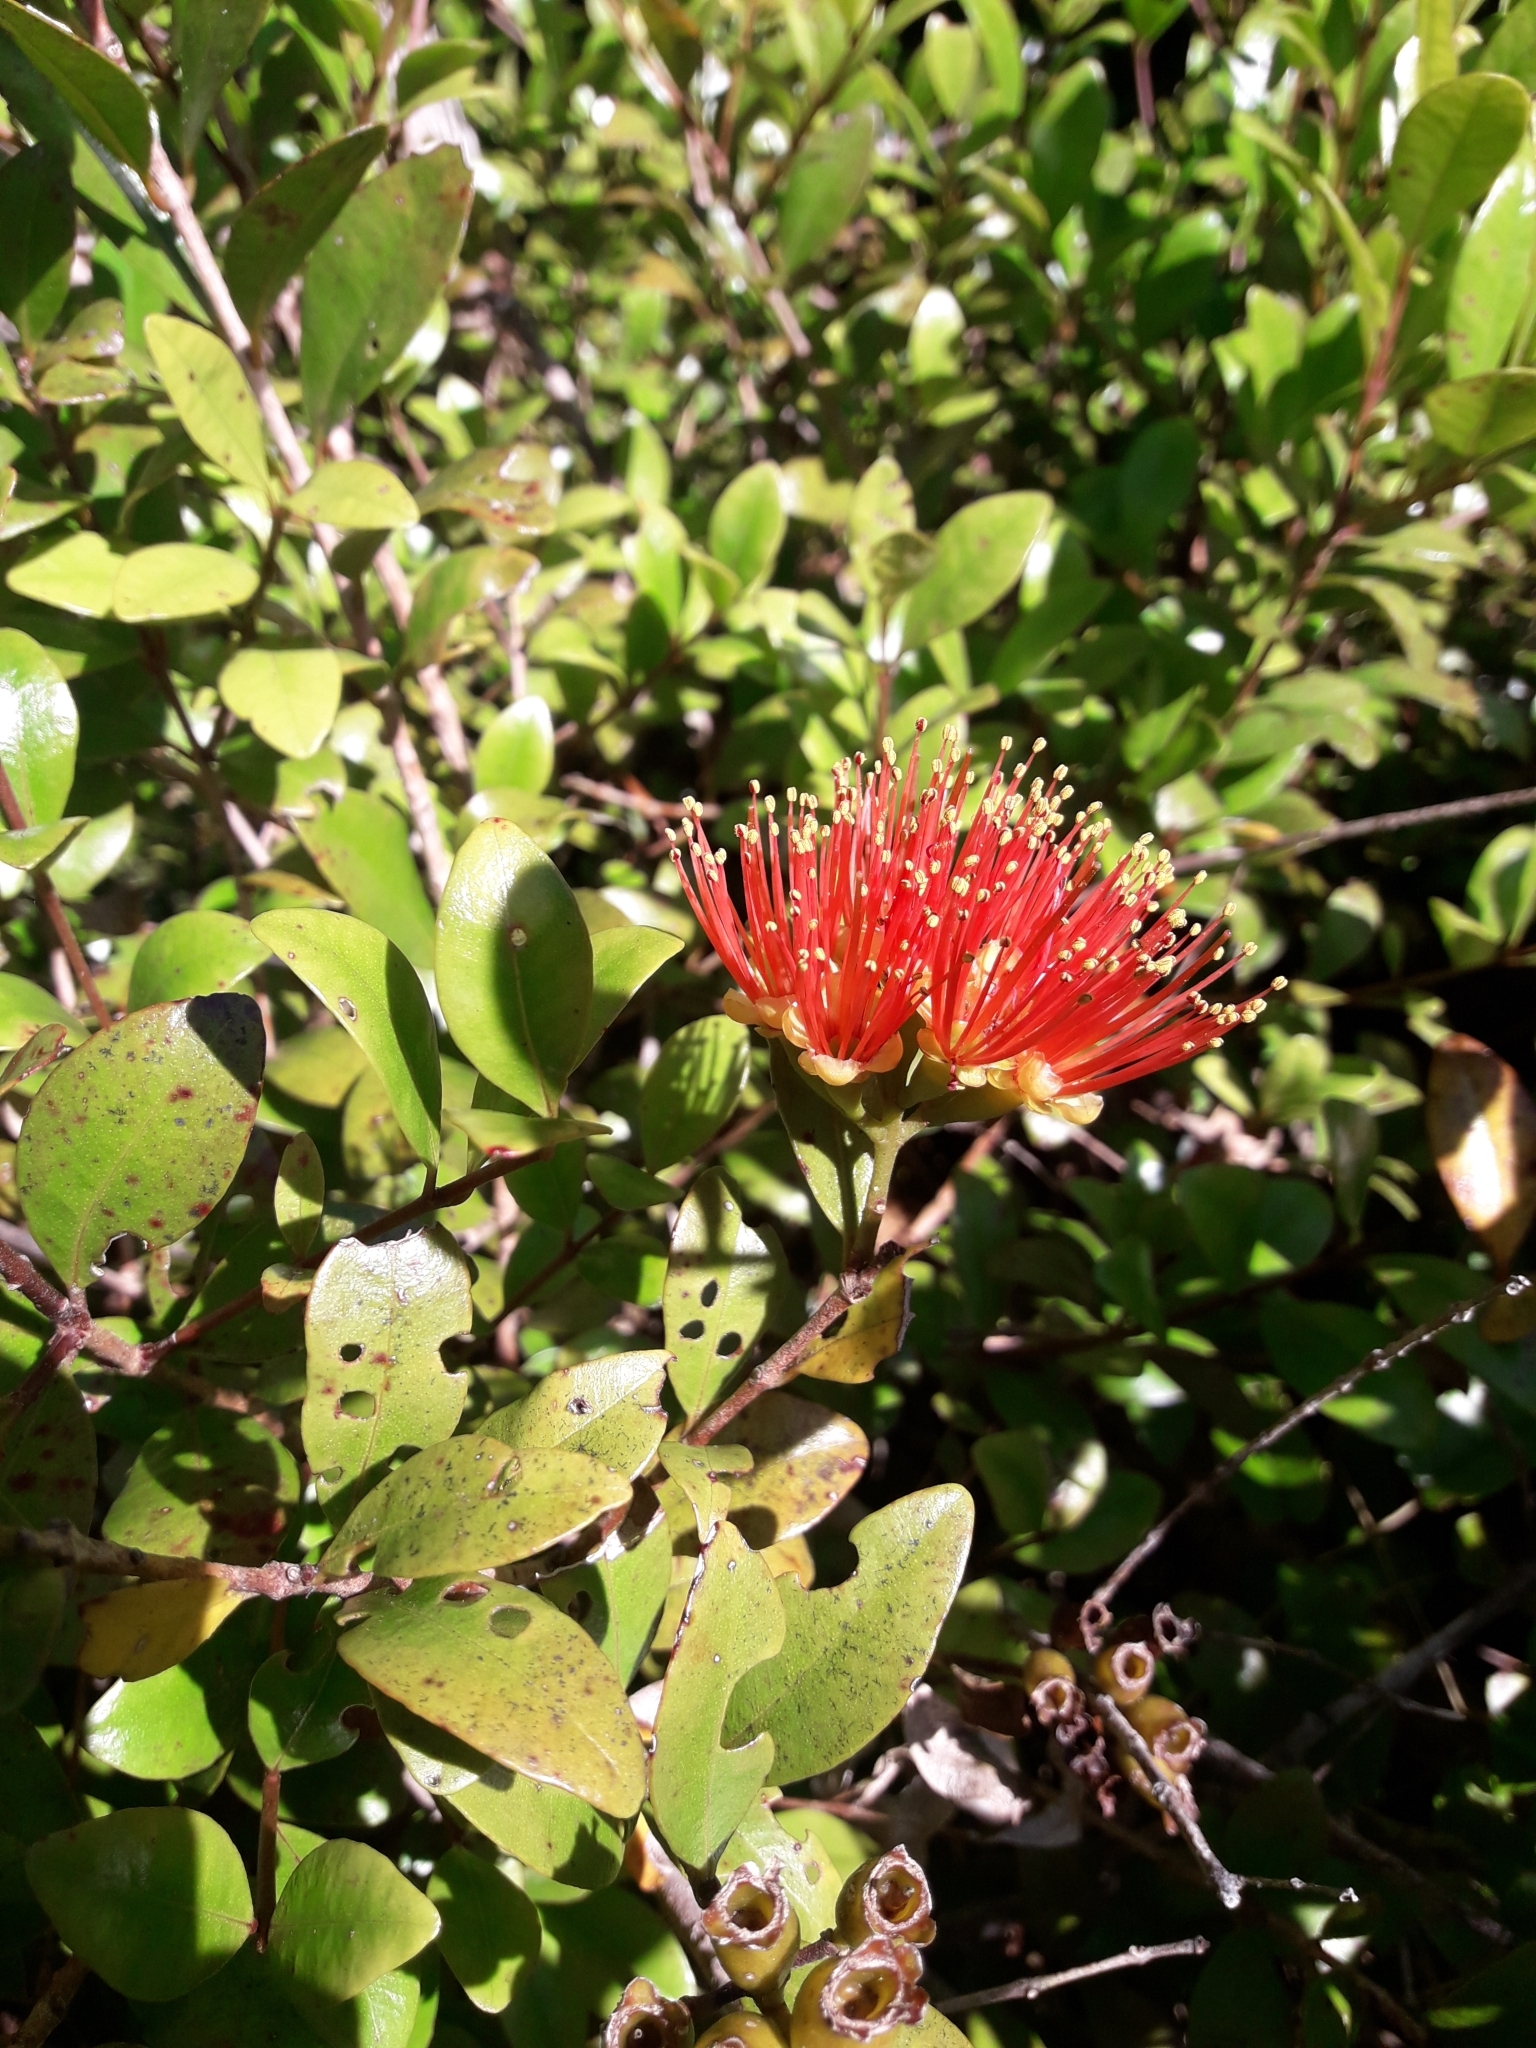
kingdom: Plantae
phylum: Tracheophyta
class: Magnoliopsida
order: Myrtales
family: Myrtaceae
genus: Metrosideros
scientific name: Metrosideros fulgens
